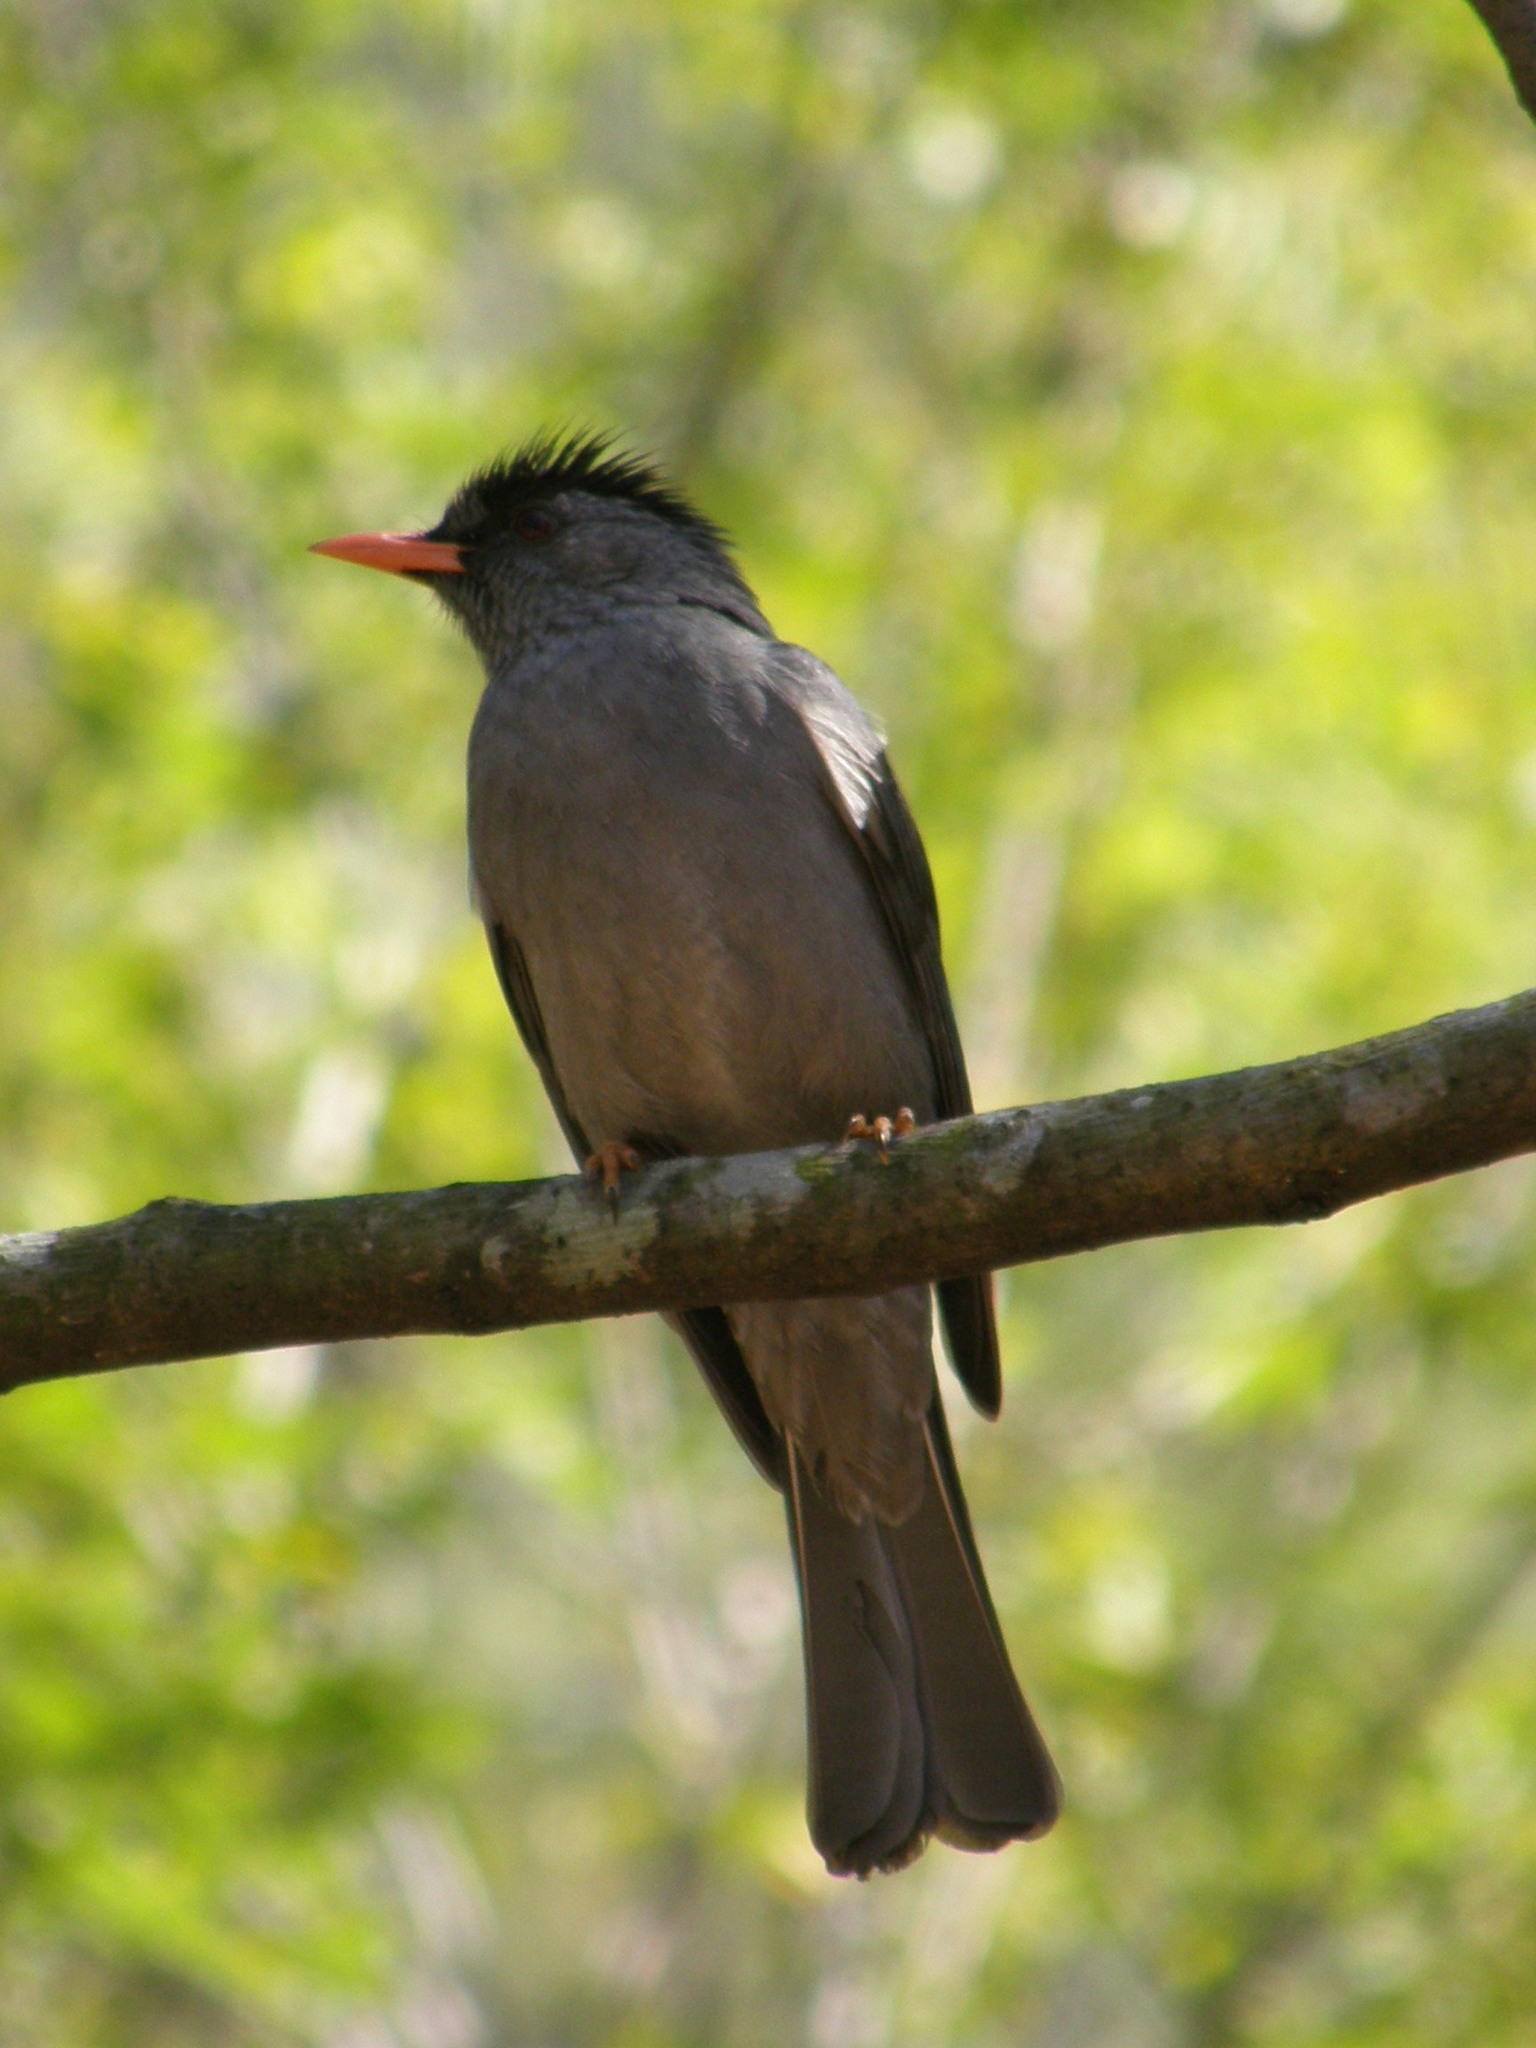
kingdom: Animalia
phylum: Chordata
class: Aves
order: Passeriformes
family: Pycnonotidae
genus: Hypsipetes
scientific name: Hypsipetes madagascariensis
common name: Malagasy bulbul
